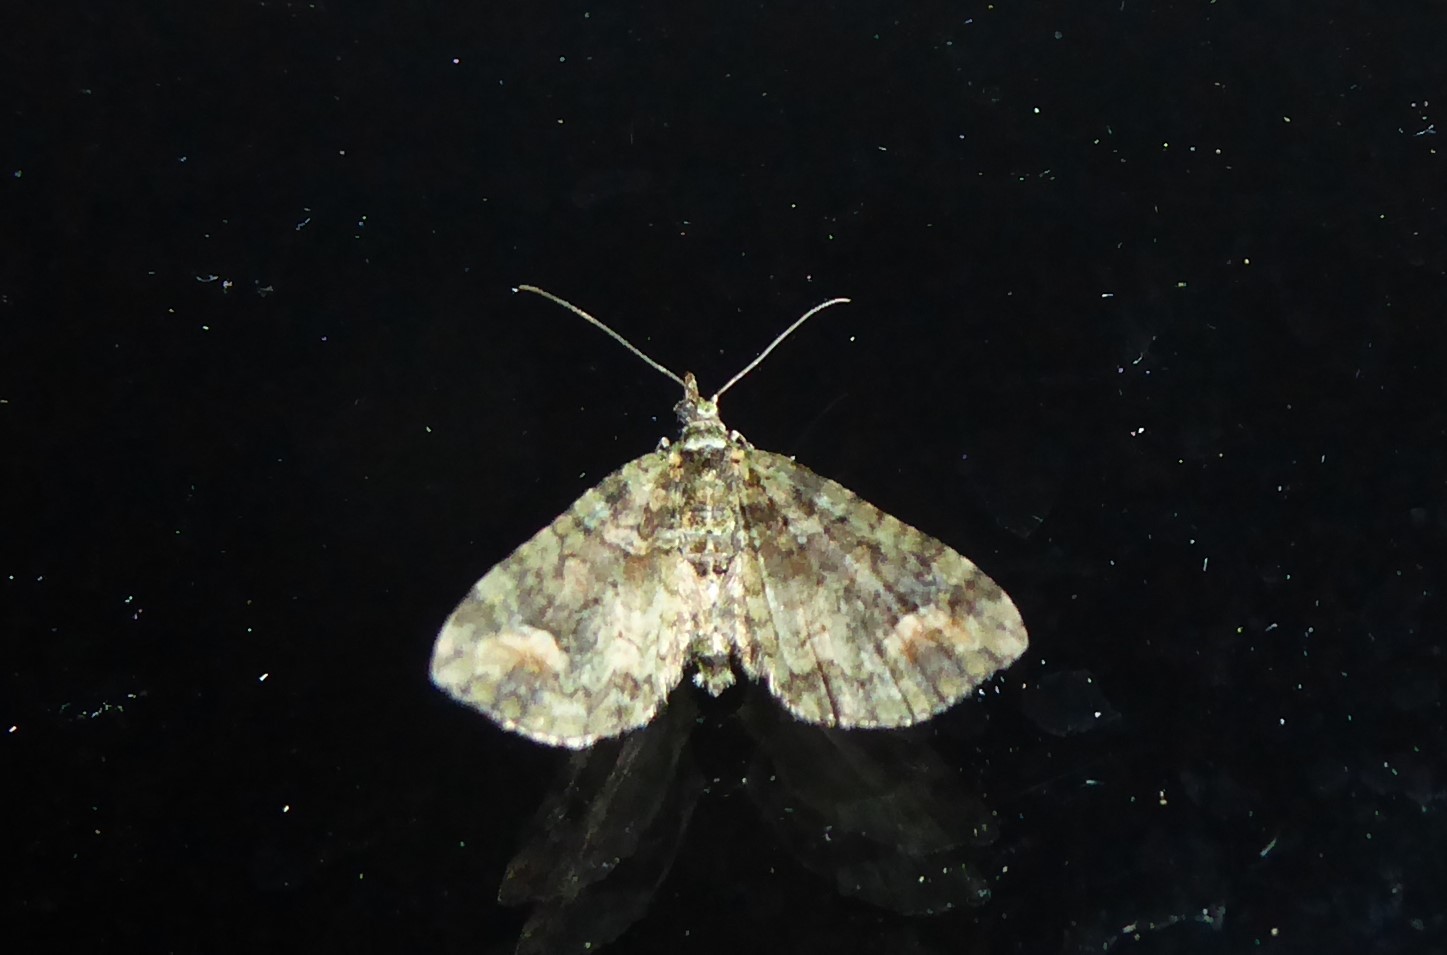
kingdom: Animalia
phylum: Arthropoda
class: Insecta
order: Lepidoptera
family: Geometridae
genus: Idaea
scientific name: Idaea mutanda
